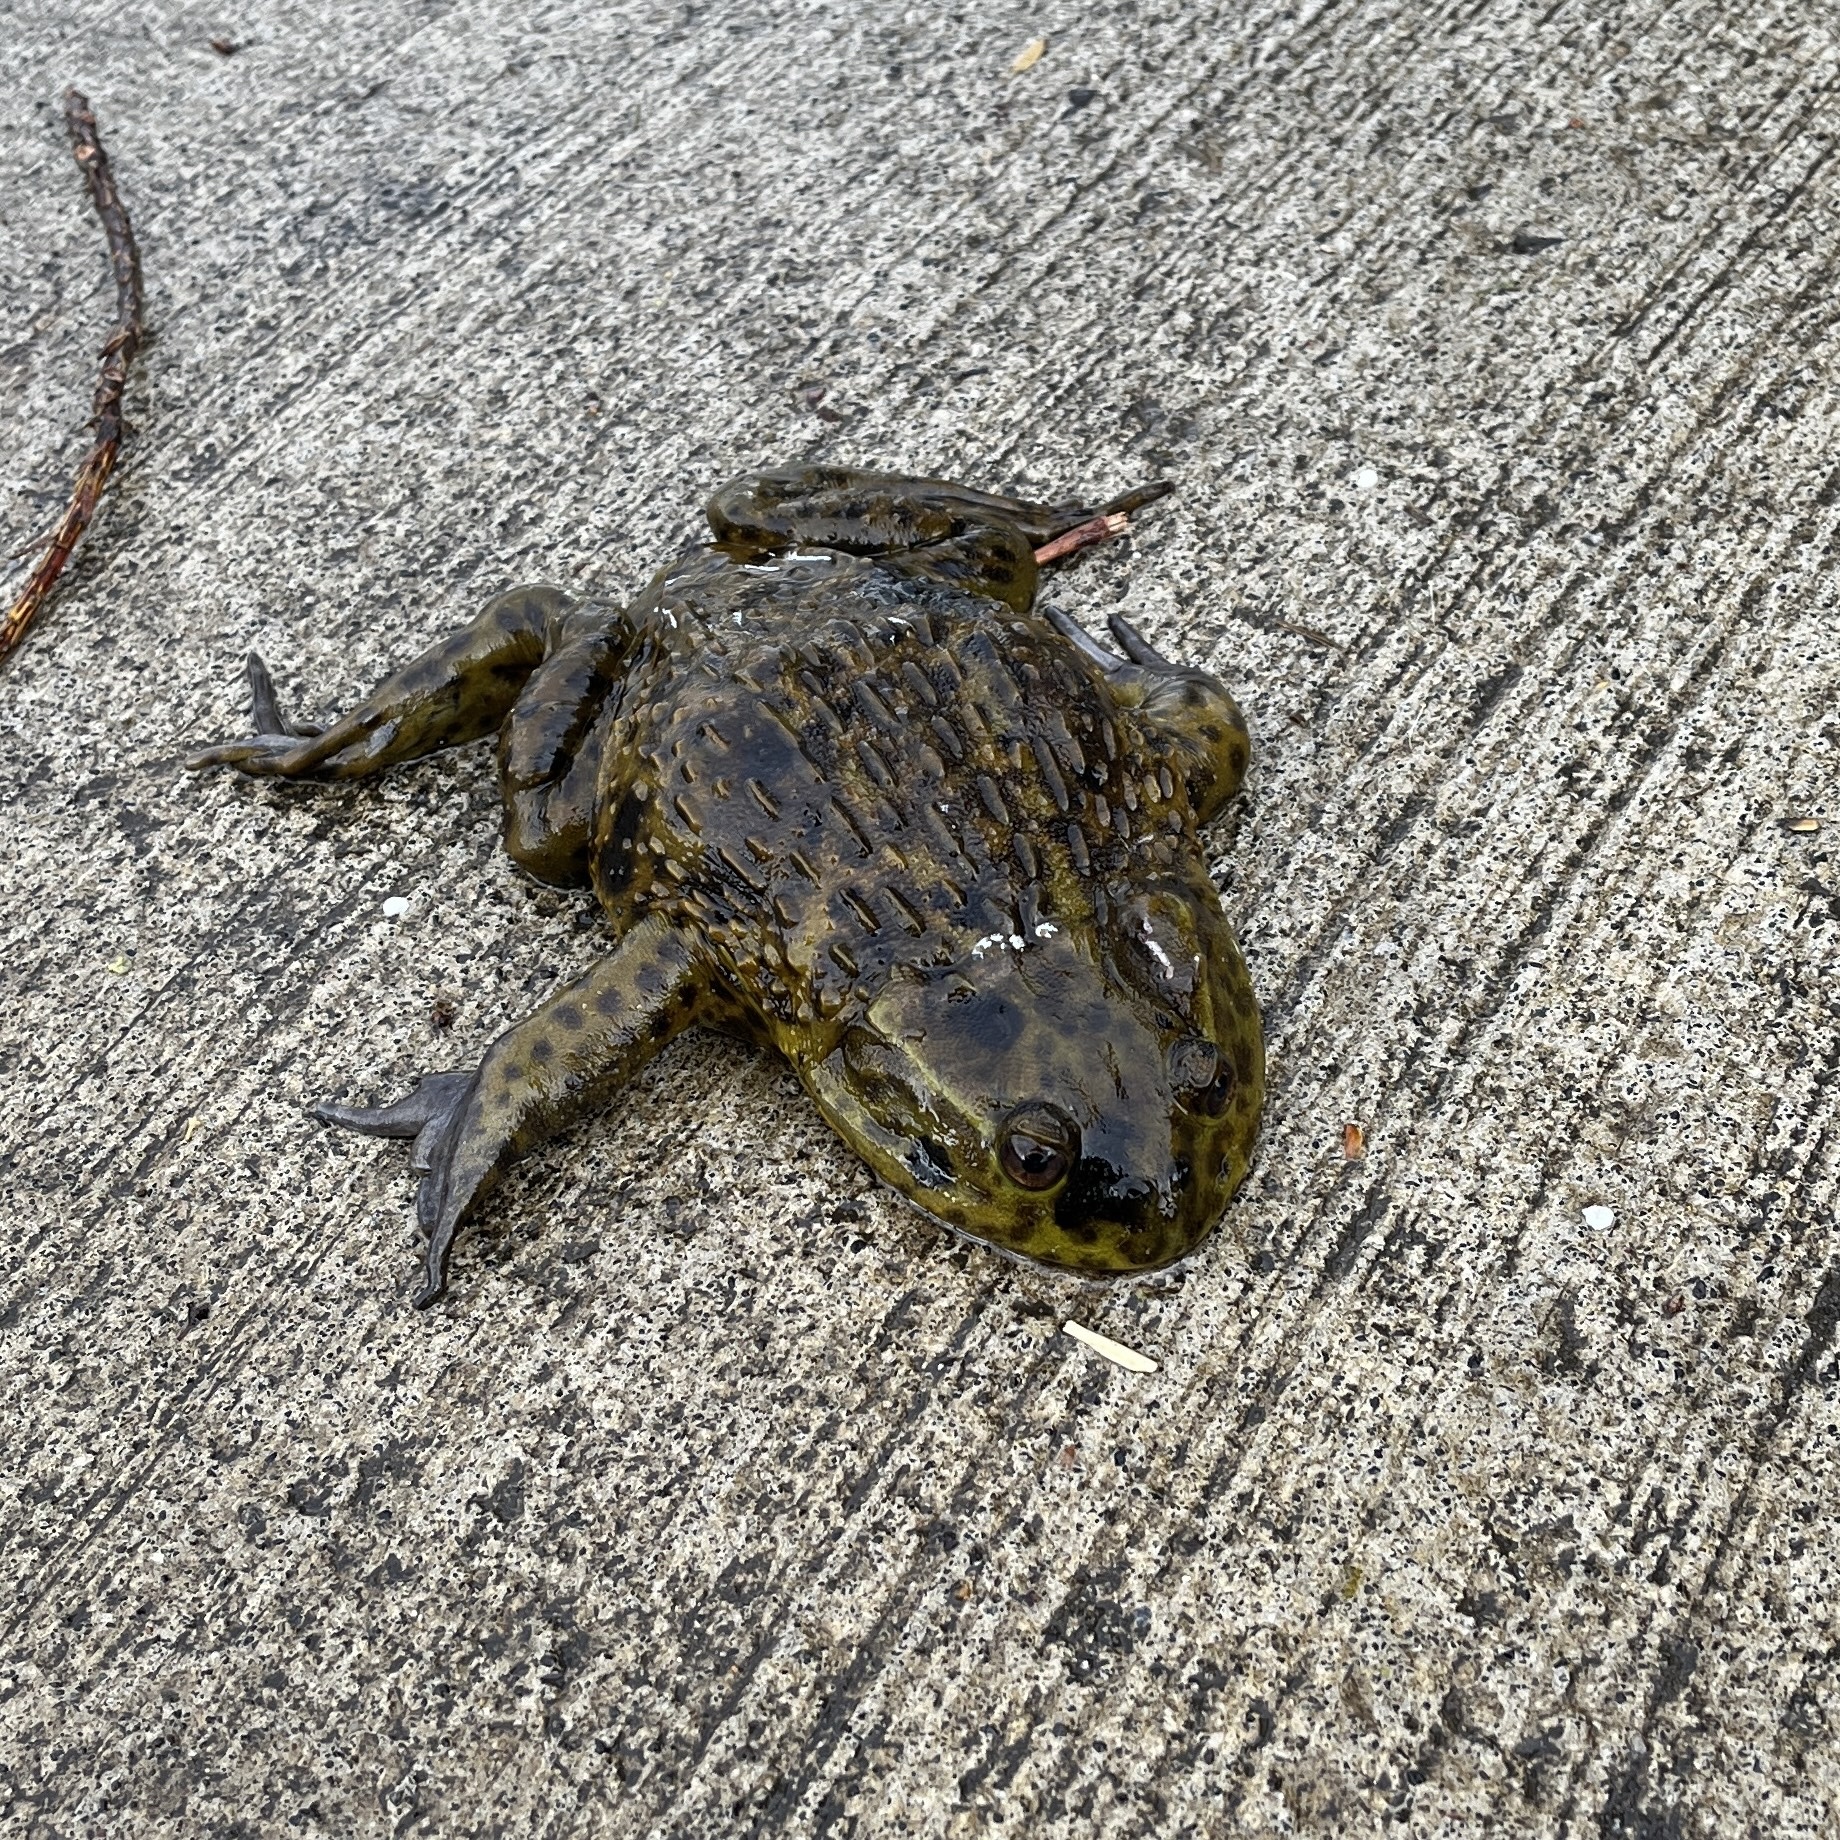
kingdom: Animalia
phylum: Chordata
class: Amphibia
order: Anura
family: Calyptocephalellidae
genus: Calyptocephalella
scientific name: Calyptocephalella gayi
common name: Chilean toad
